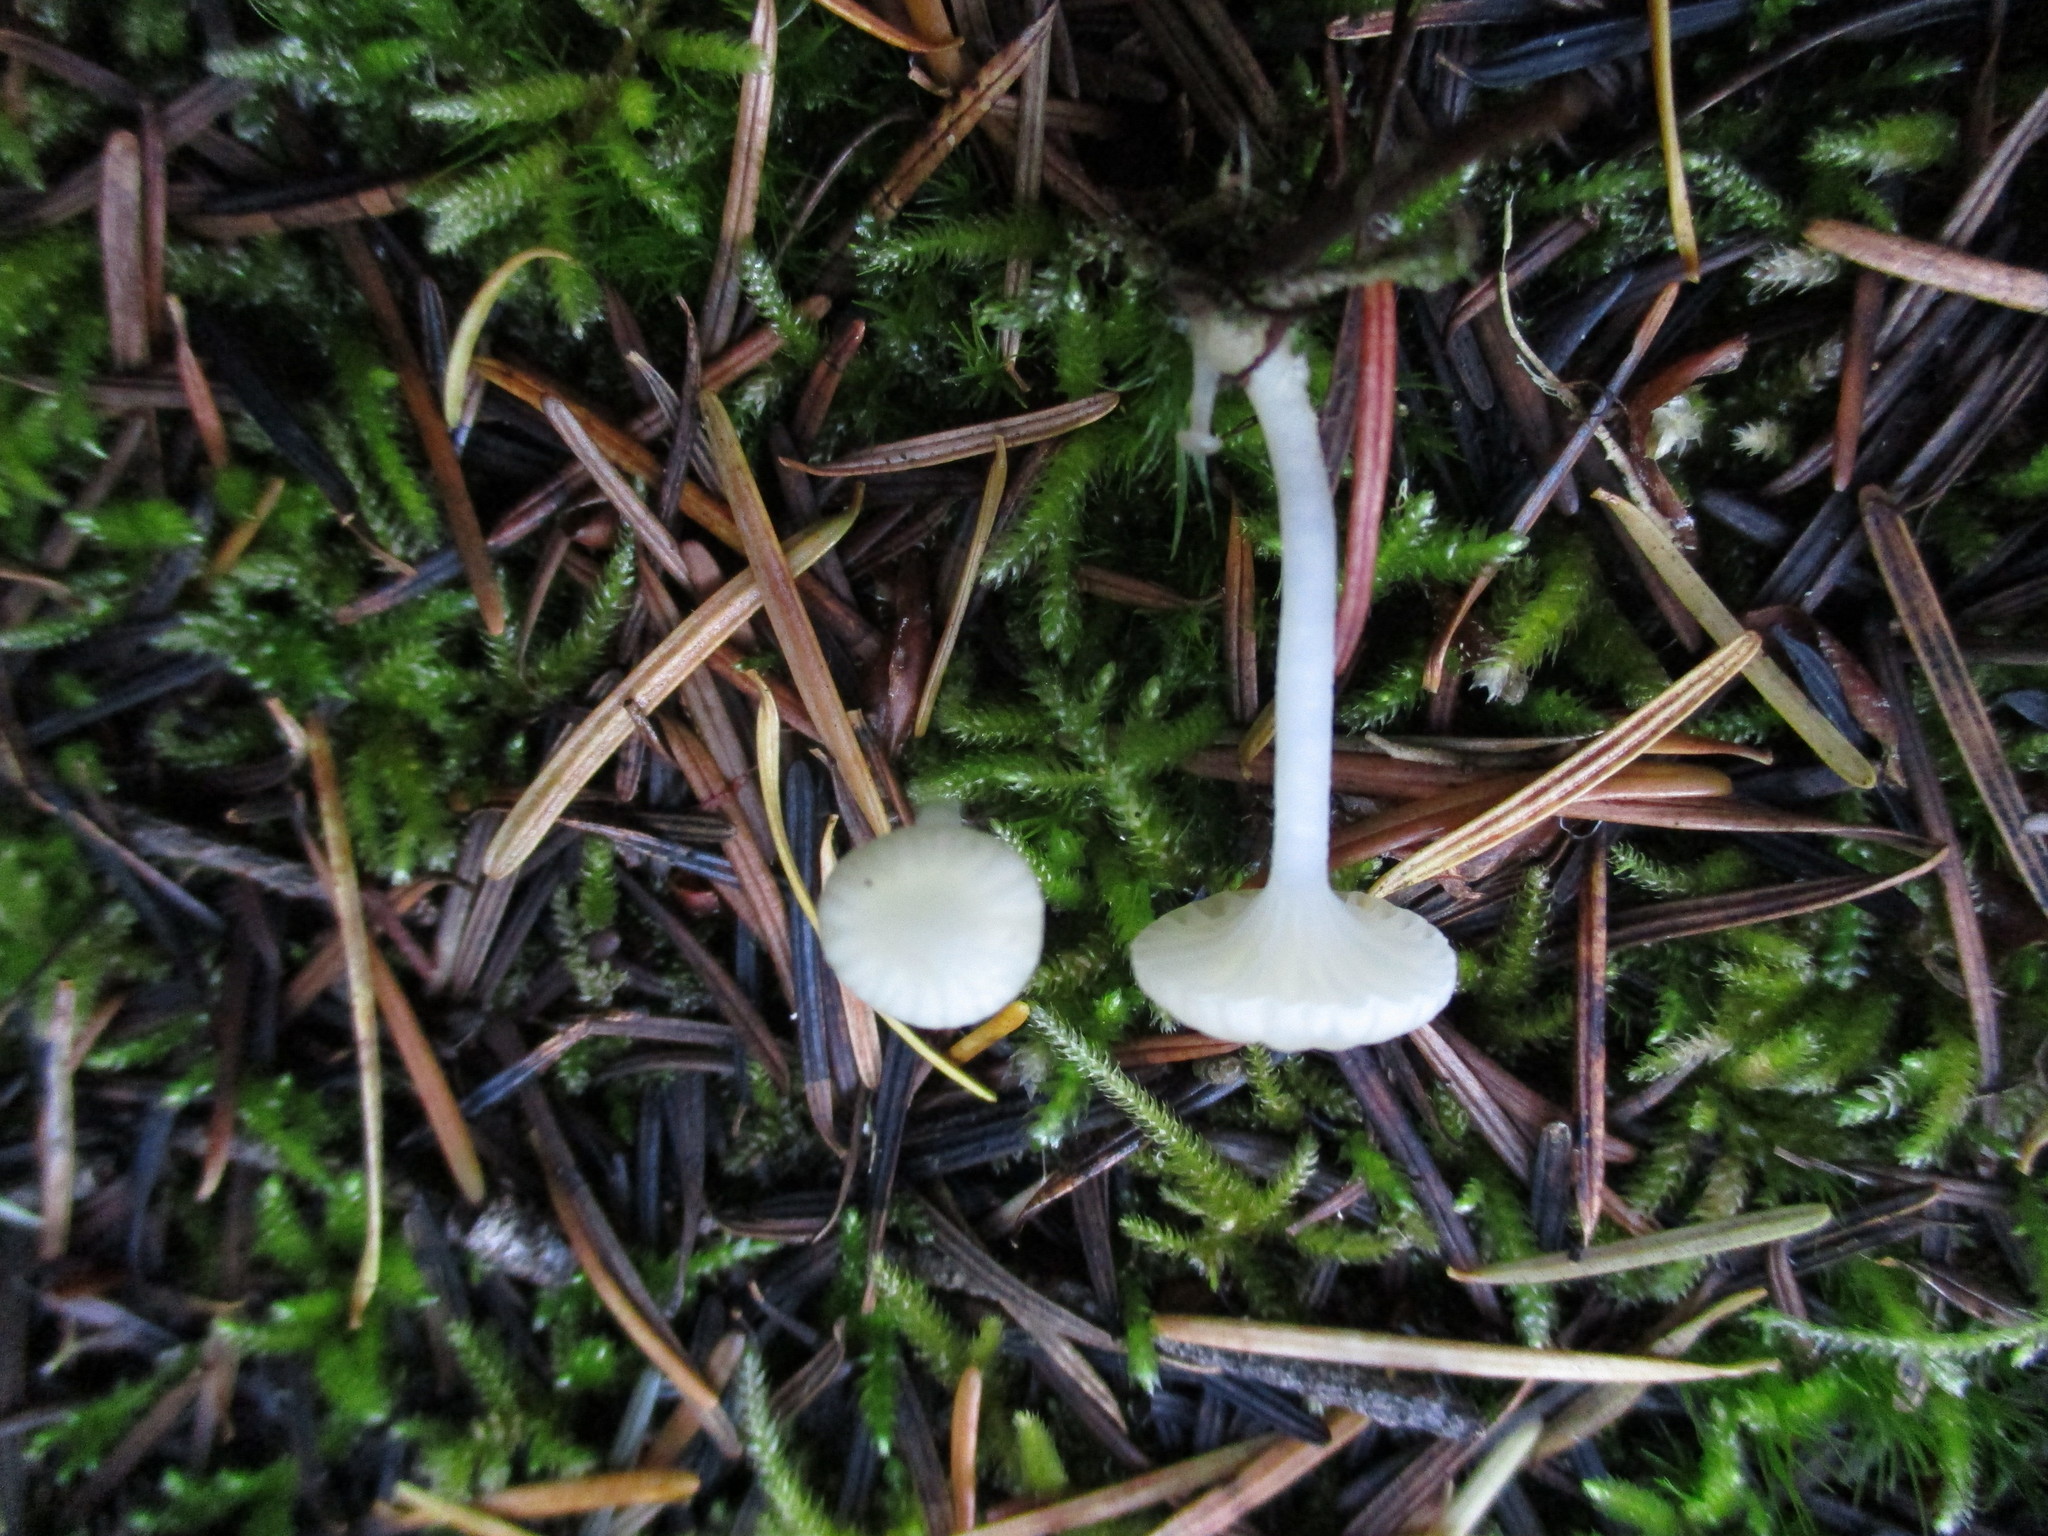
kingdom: Fungi
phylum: Basidiomycota
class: Agaricomycetes
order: Agaricales
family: Hygrophoraceae
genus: Cuphophyllus
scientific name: Cuphophyllus russocoriaceus
